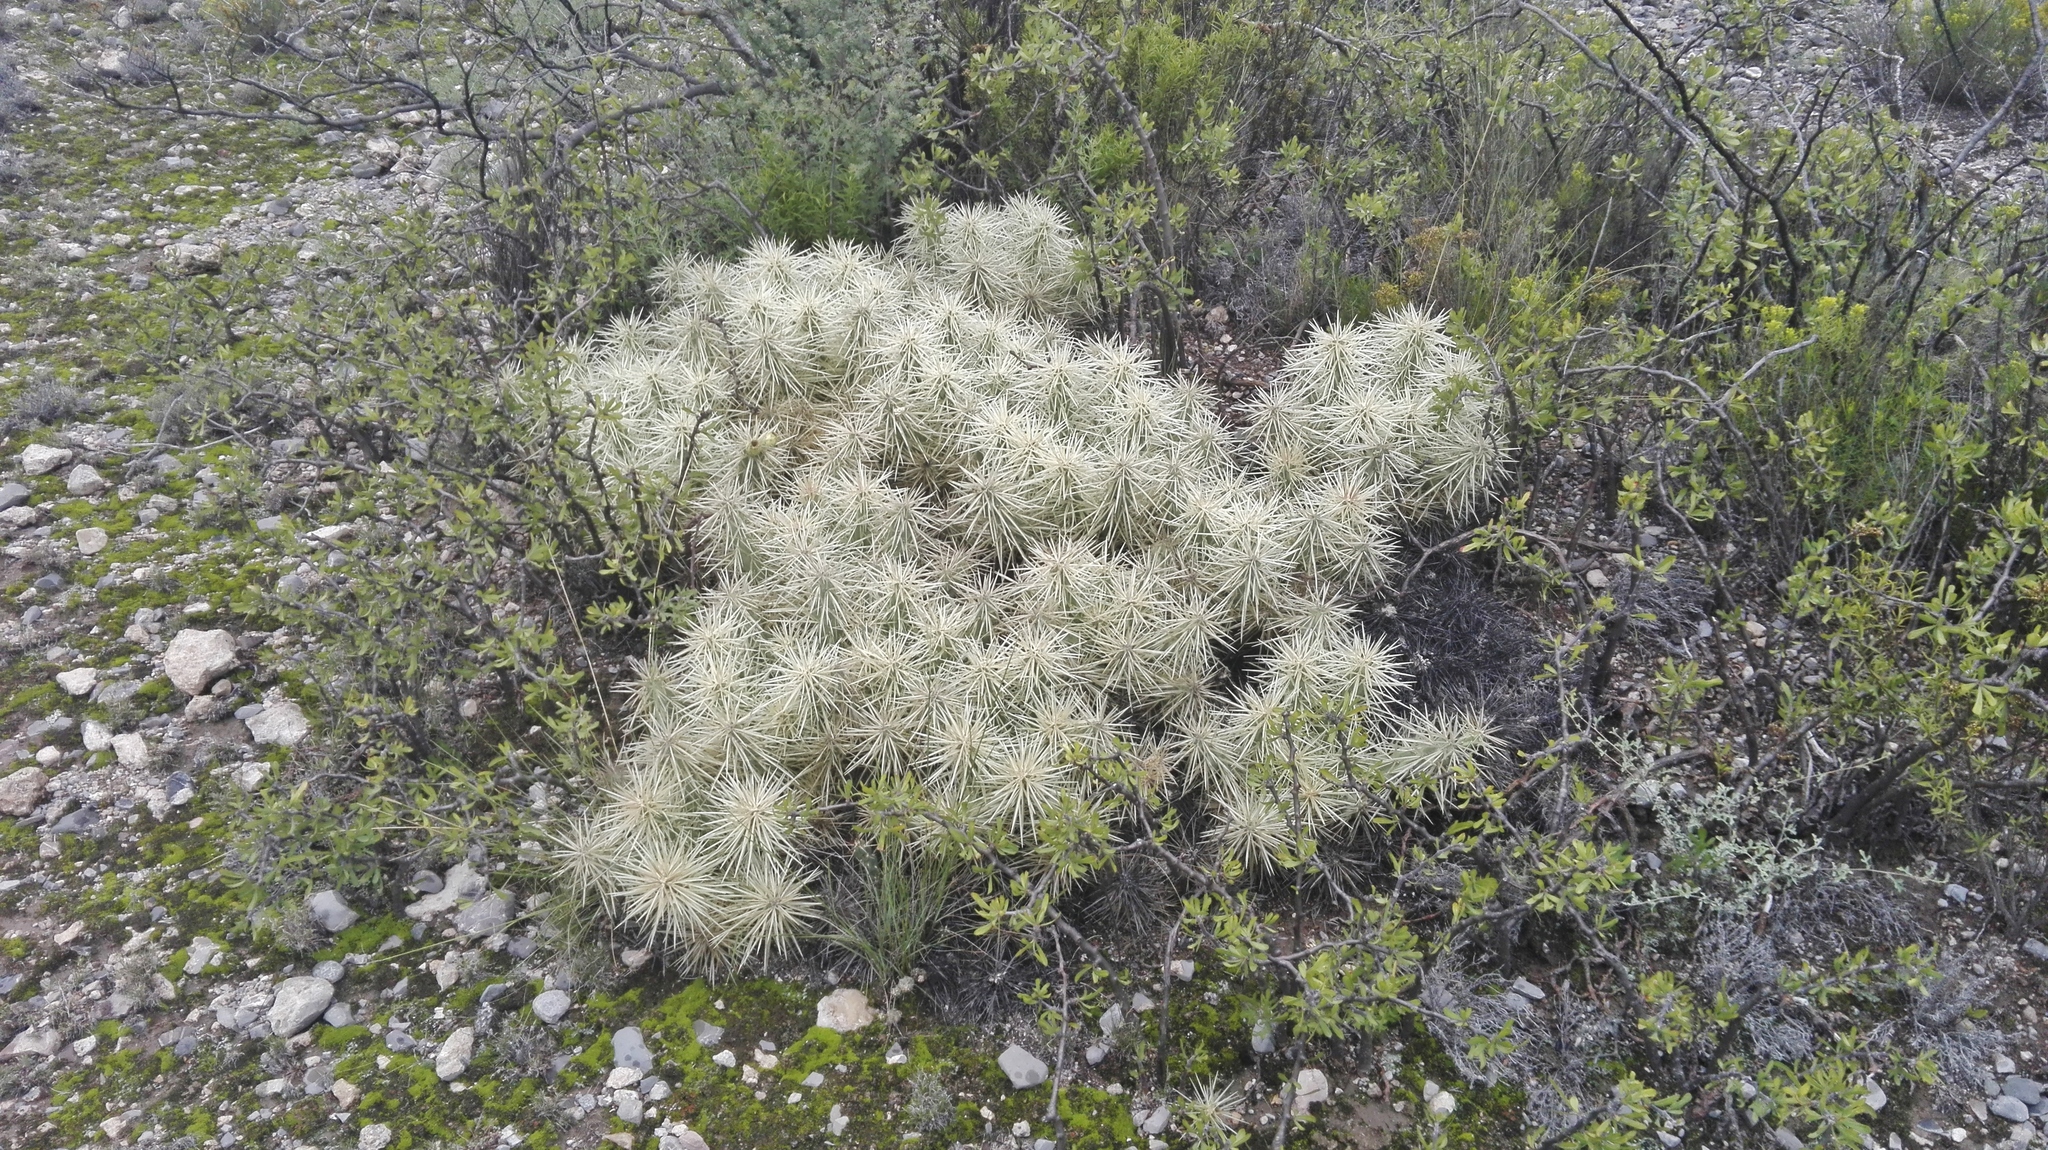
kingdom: Plantae
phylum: Tracheophyta
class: Magnoliopsida
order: Caryophyllales
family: Cactaceae
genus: Cylindropuntia
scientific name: Cylindropuntia tunicata
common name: Sheathed cholla
